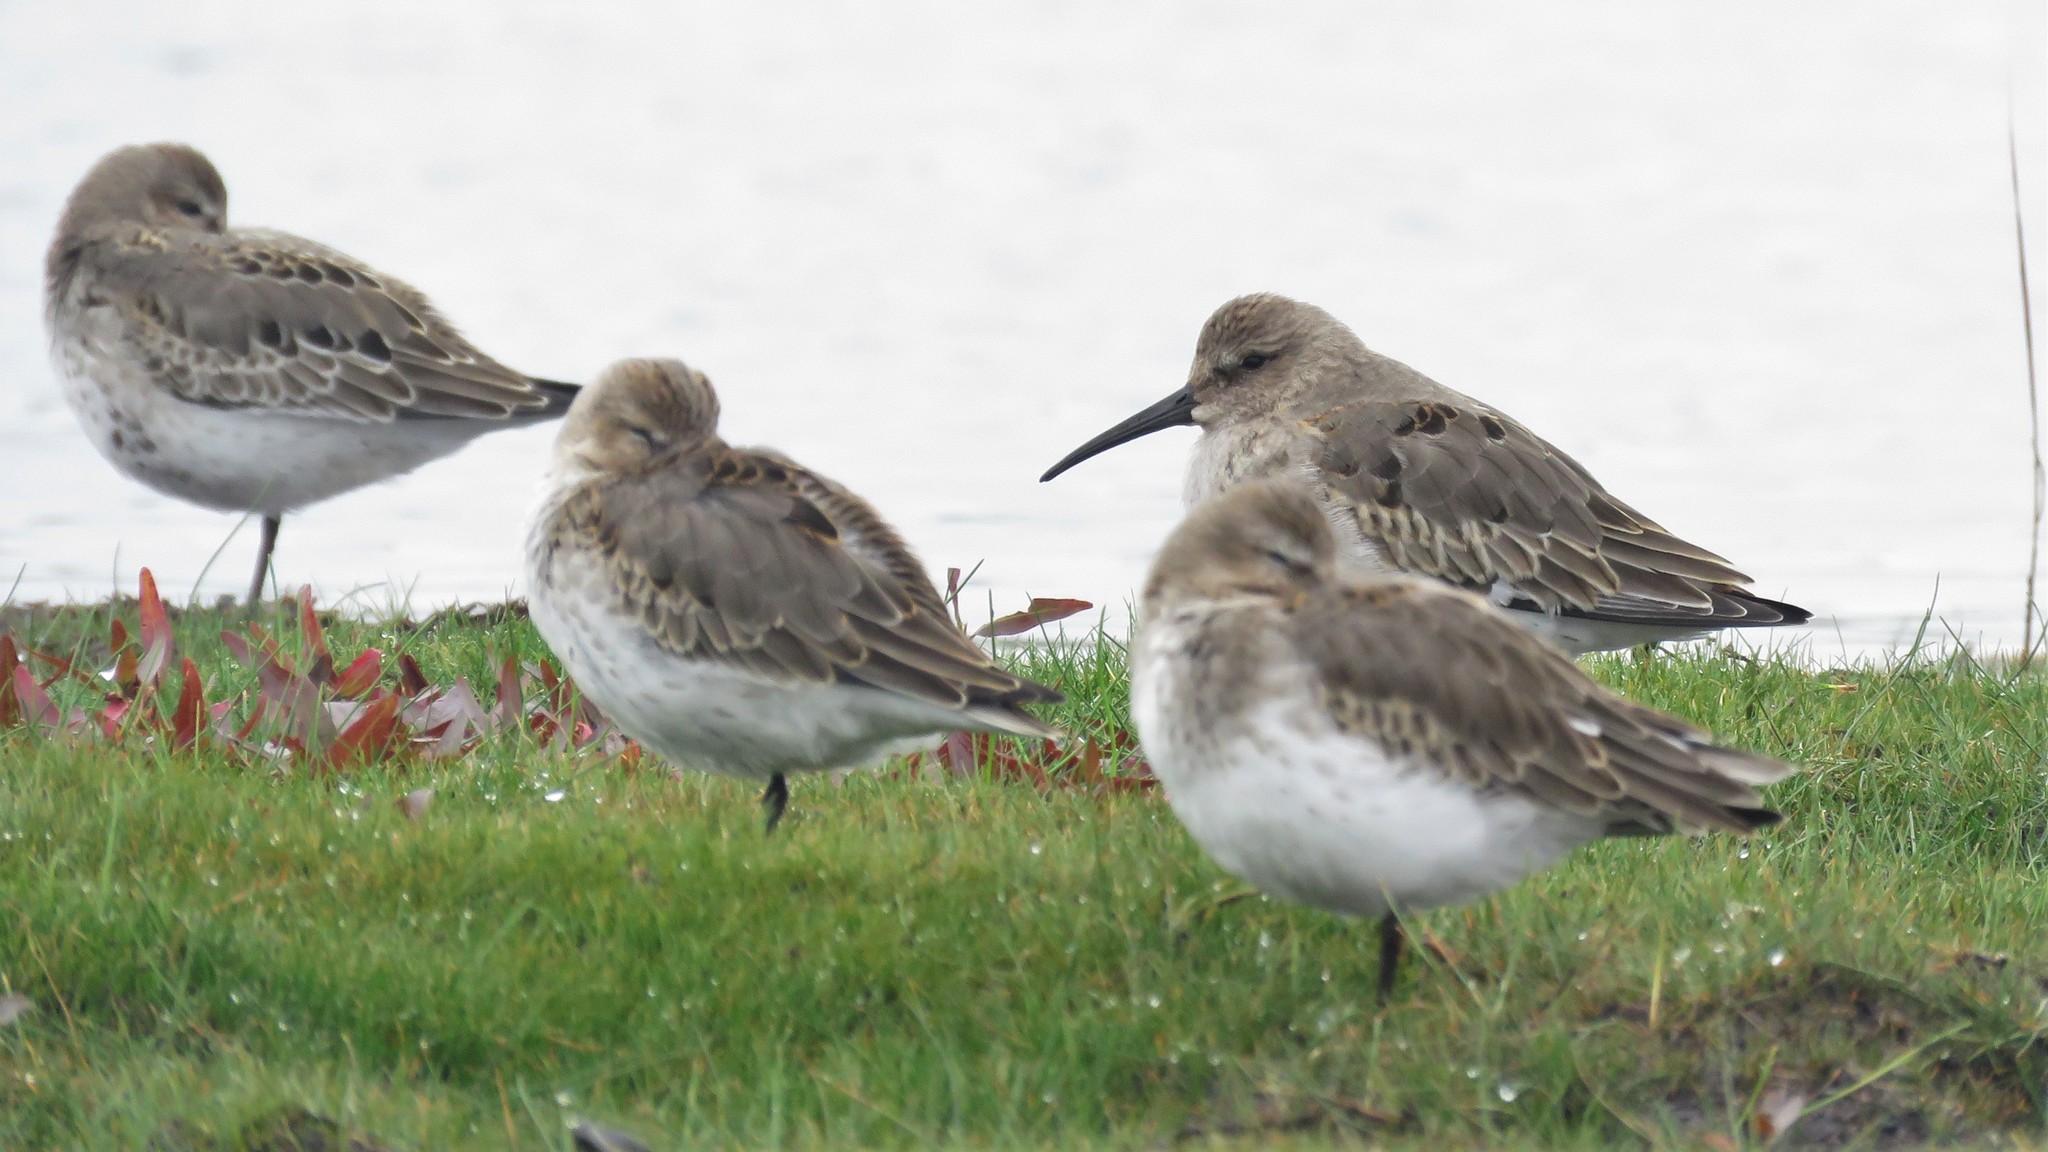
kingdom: Animalia
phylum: Chordata
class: Aves
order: Charadriiformes
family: Scolopacidae
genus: Calidris
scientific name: Calidris alpina
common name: Dunlin
